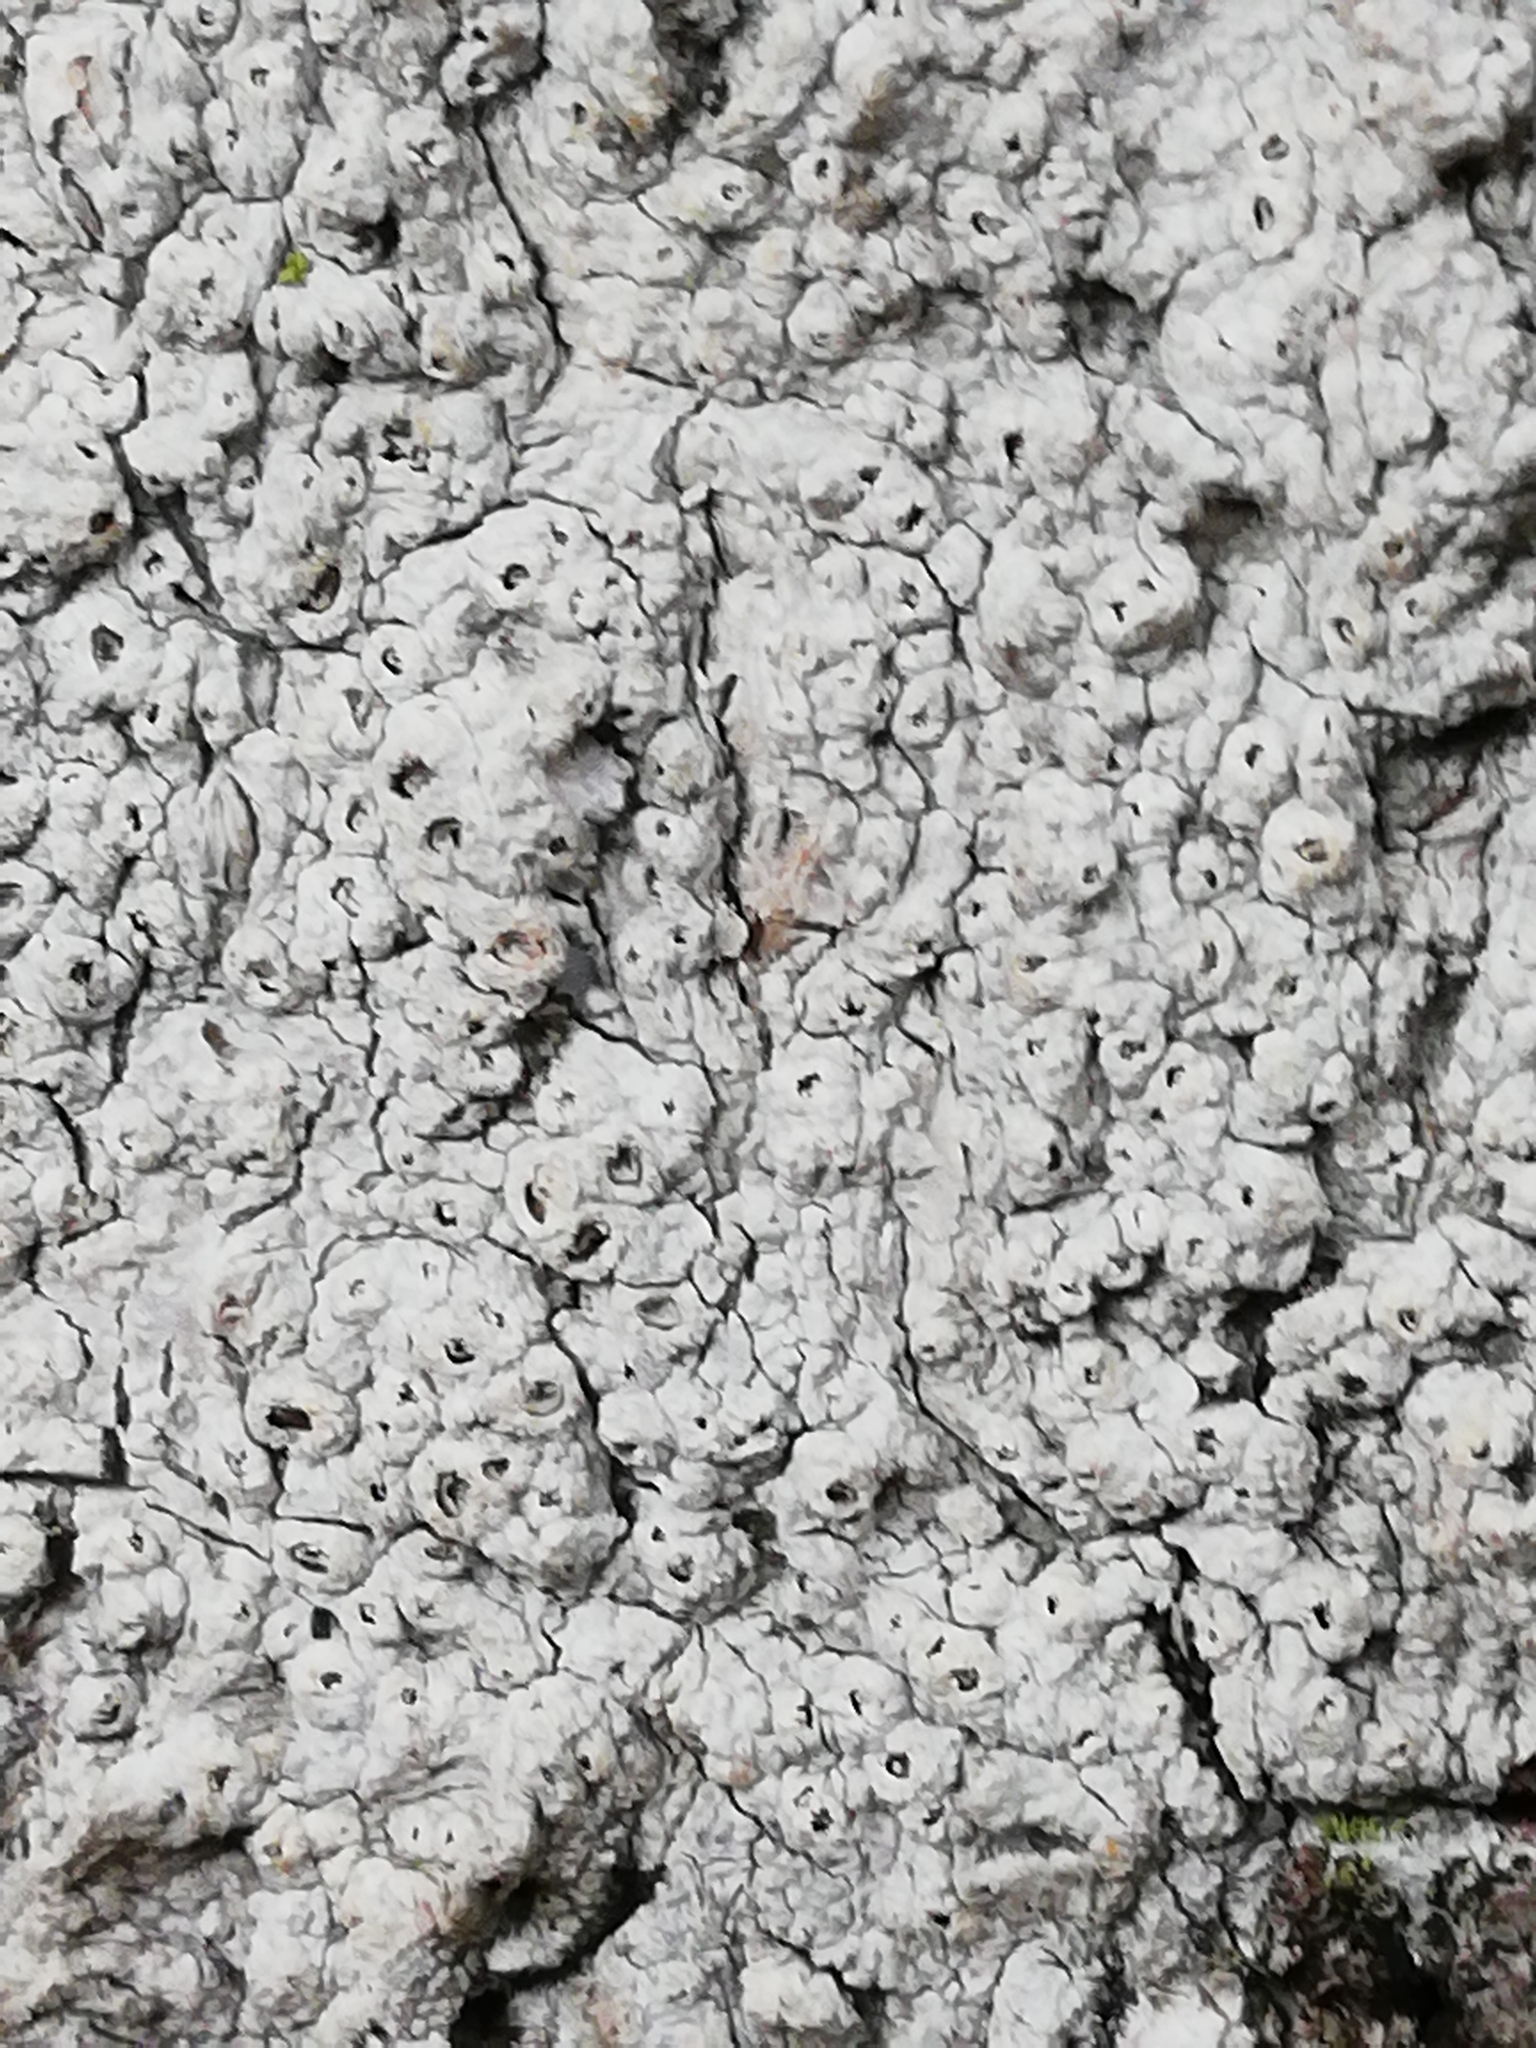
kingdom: Fungi
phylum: Ascomycota
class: Lecanoromycetes
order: Ostropales
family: Graphidaceae
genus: Thelotrema
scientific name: Thelotrema lepadinum
